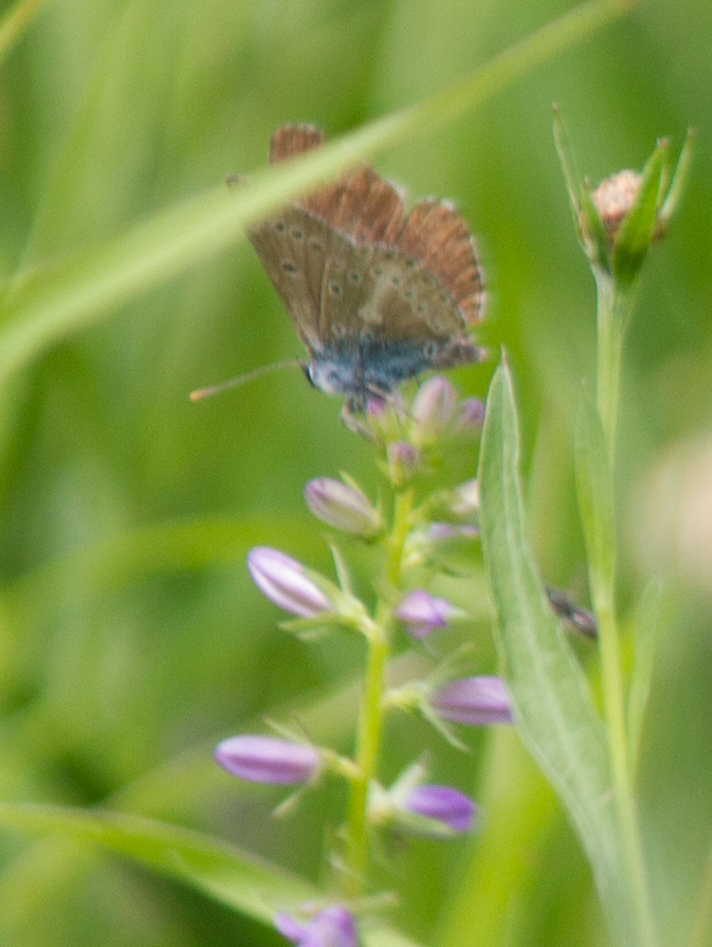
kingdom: Animalia
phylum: Arthropoda
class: Insecta
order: Lepidoptera
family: Lycaenidae
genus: Eumedonia
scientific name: Eumedonia eumedon
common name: Geranium argus
